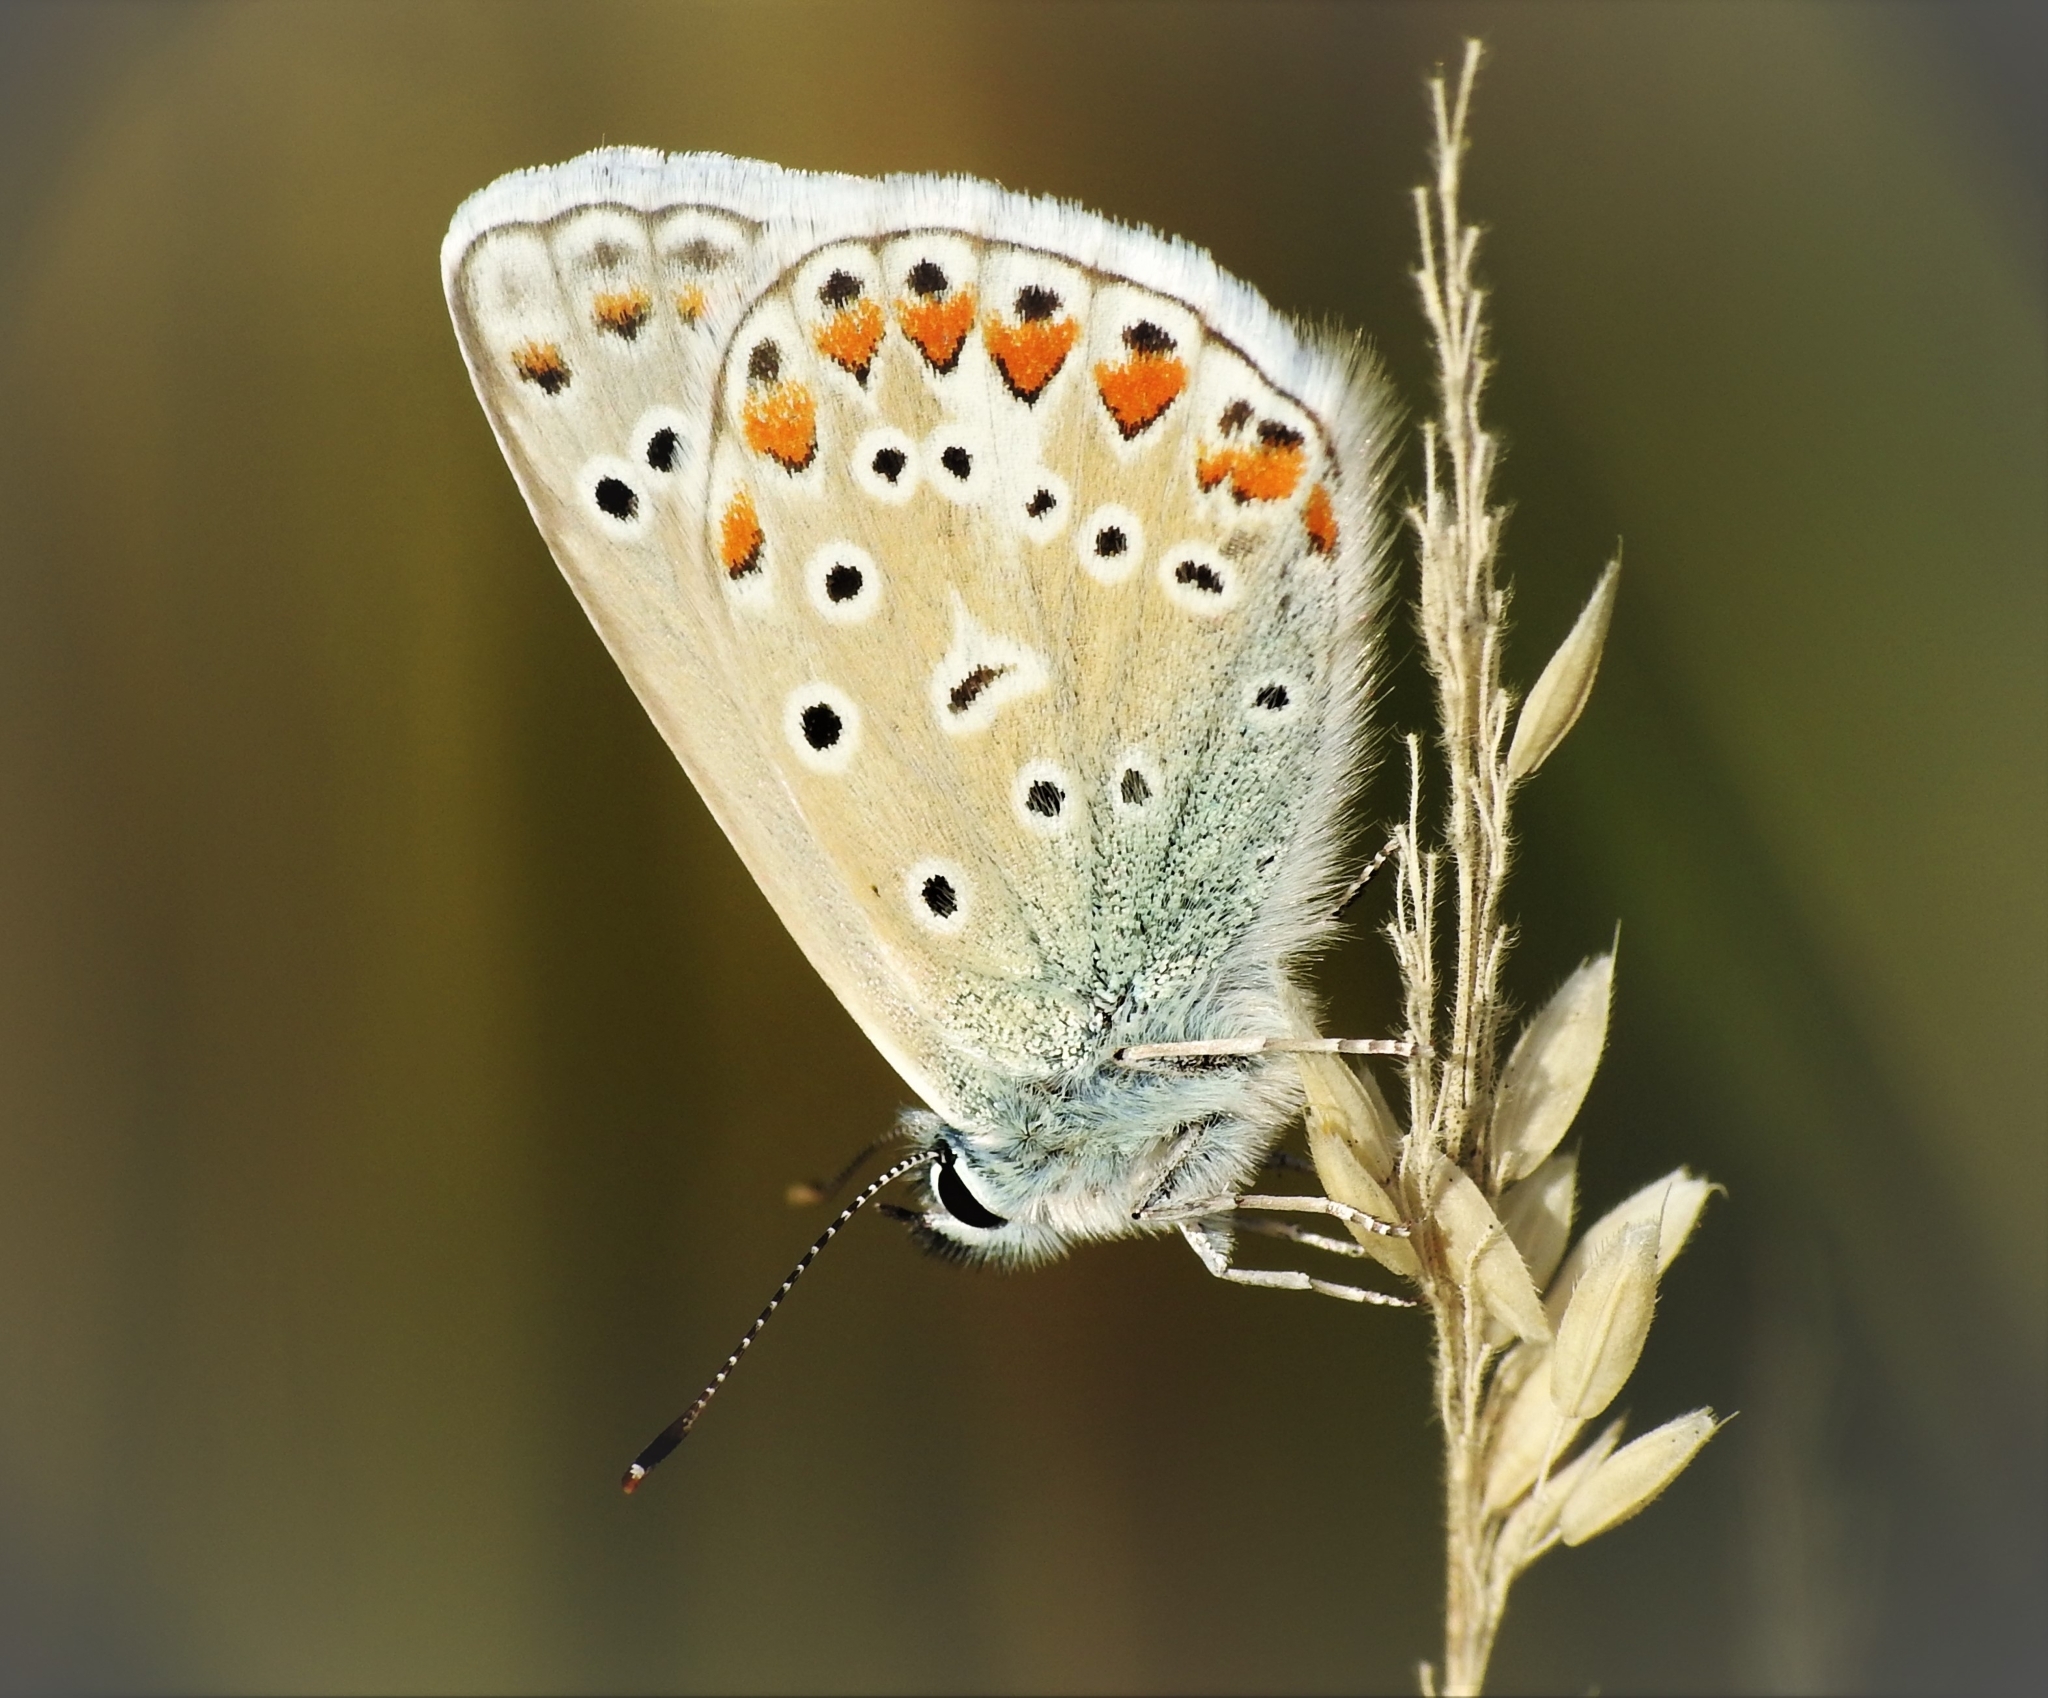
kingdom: Animalia
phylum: Arthropoda
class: Insecta
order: Lepidoptera
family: Lycaenidae
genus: Polyommatus
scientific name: Polyommatus icarus
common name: Common blue
